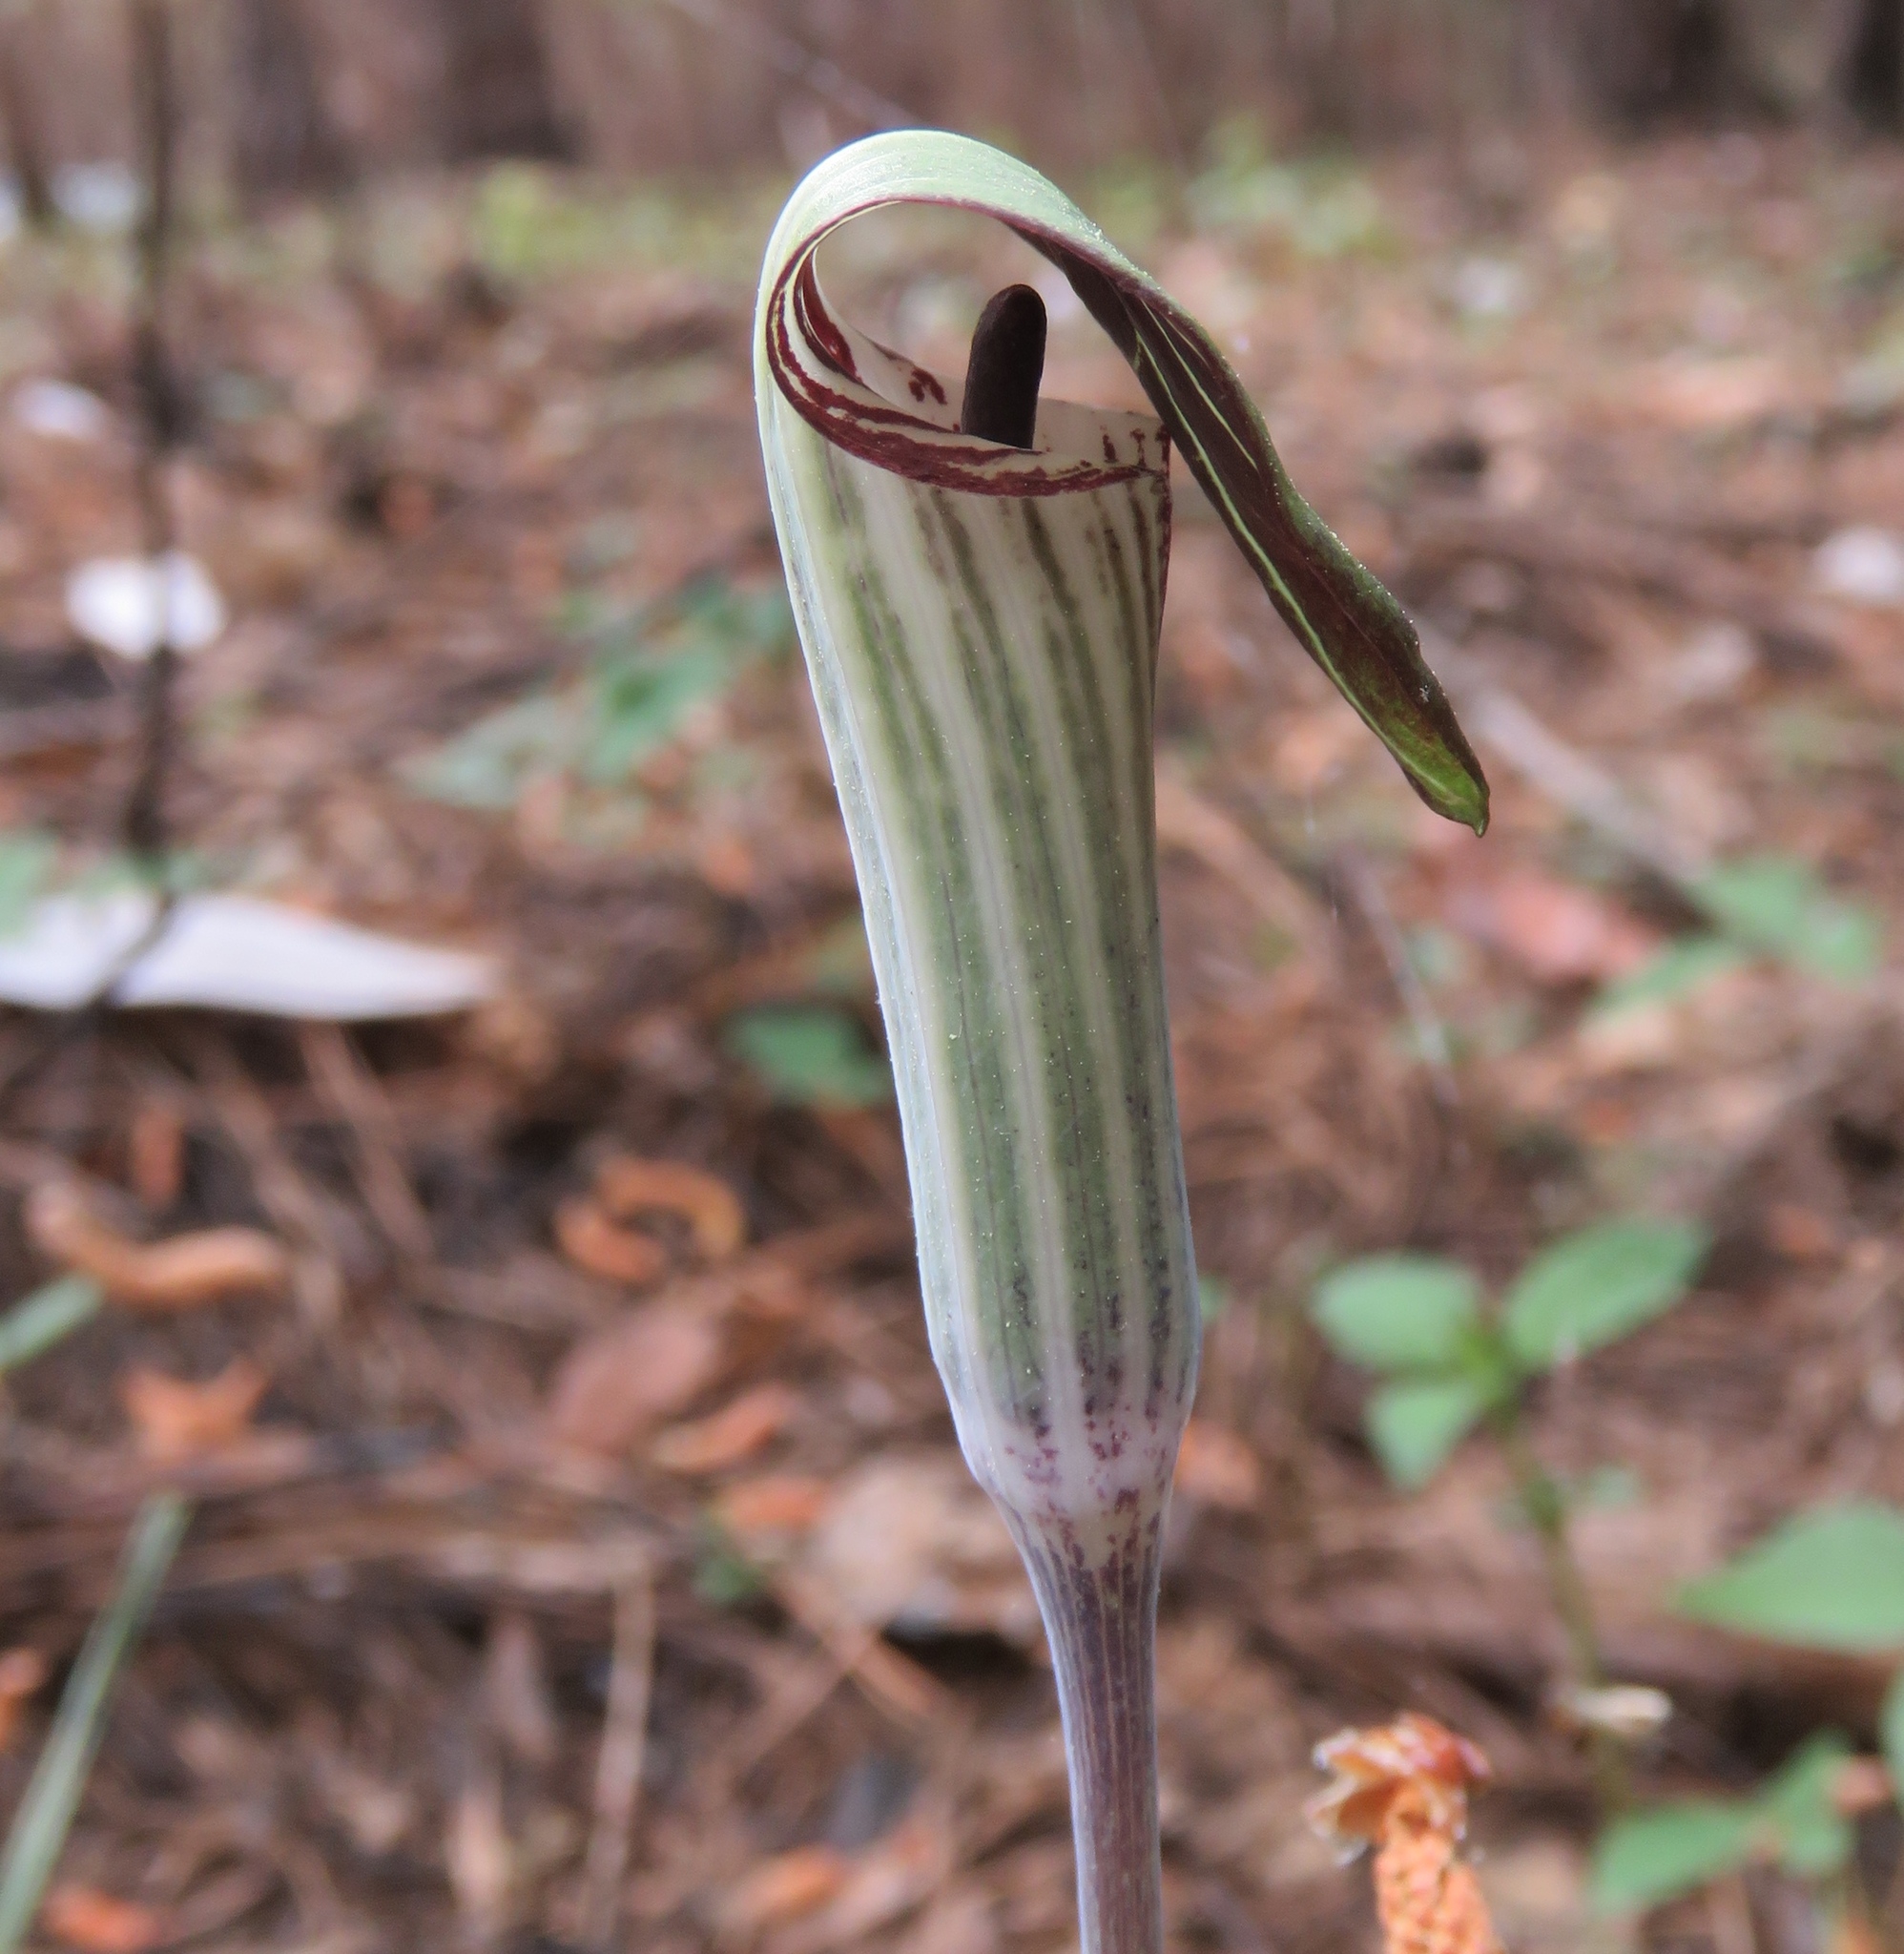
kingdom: Plantae
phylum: Tracheophyta
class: Liliopsida
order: Alismatales
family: Araceae
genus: Arisaema
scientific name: Arisaema triphyllum
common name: Jack-in-the-pulpit
